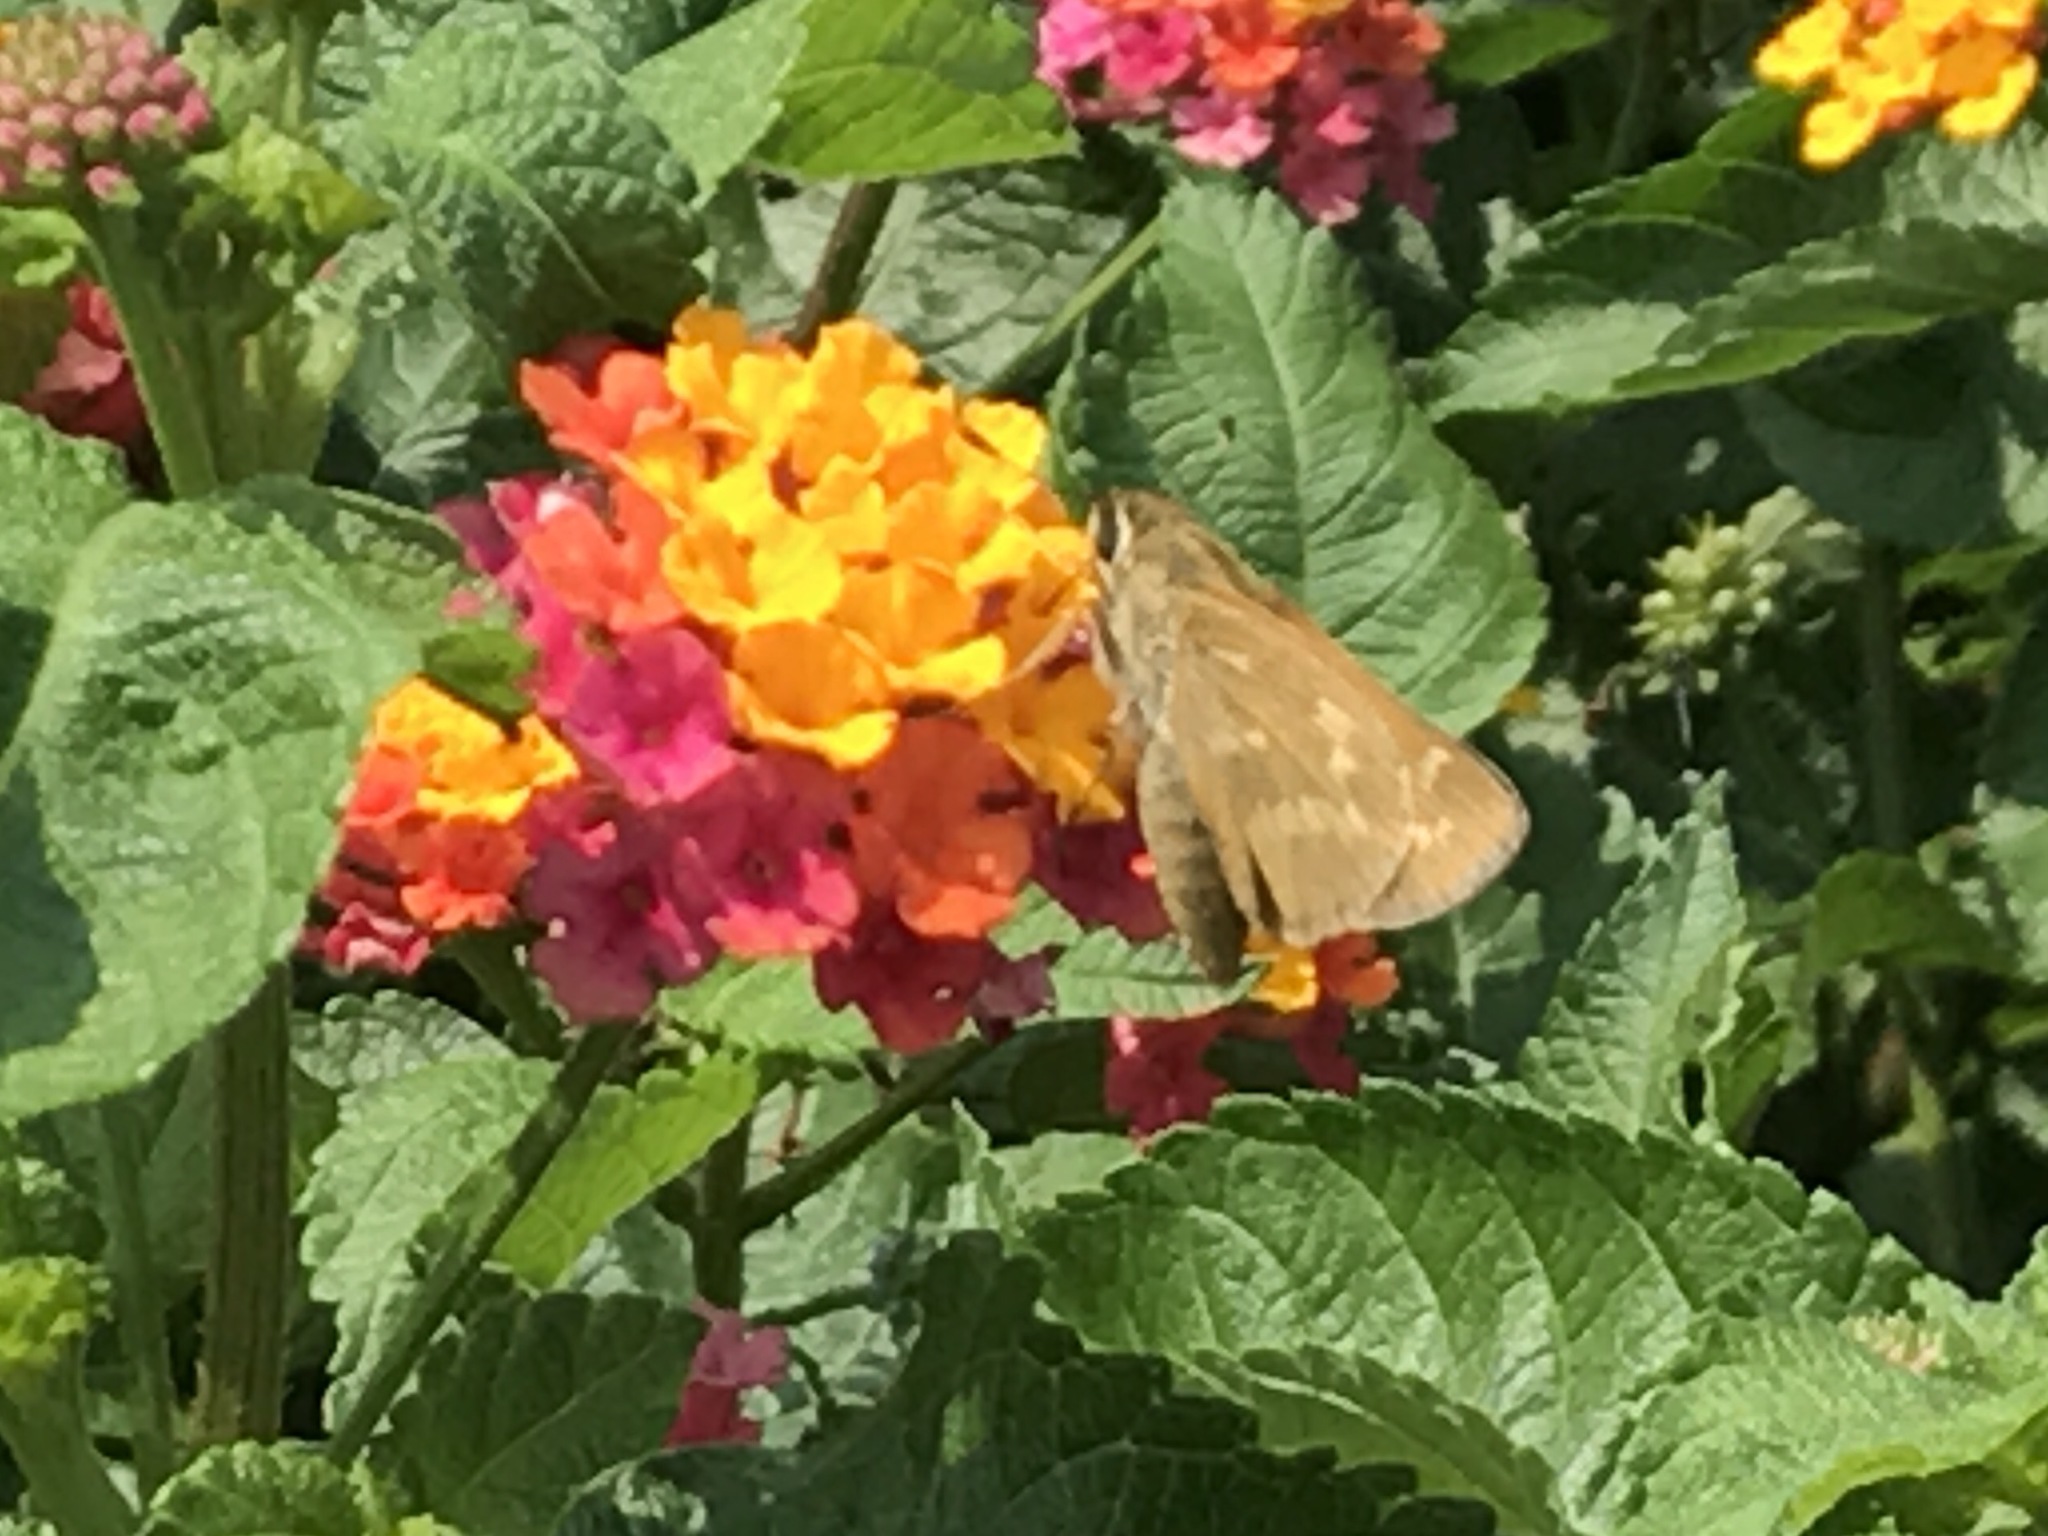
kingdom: Animalia
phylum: Arthropoda
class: Insecta
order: Lepidoptera
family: Hesperiidae
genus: Atalopedes
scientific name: Atalopedes
